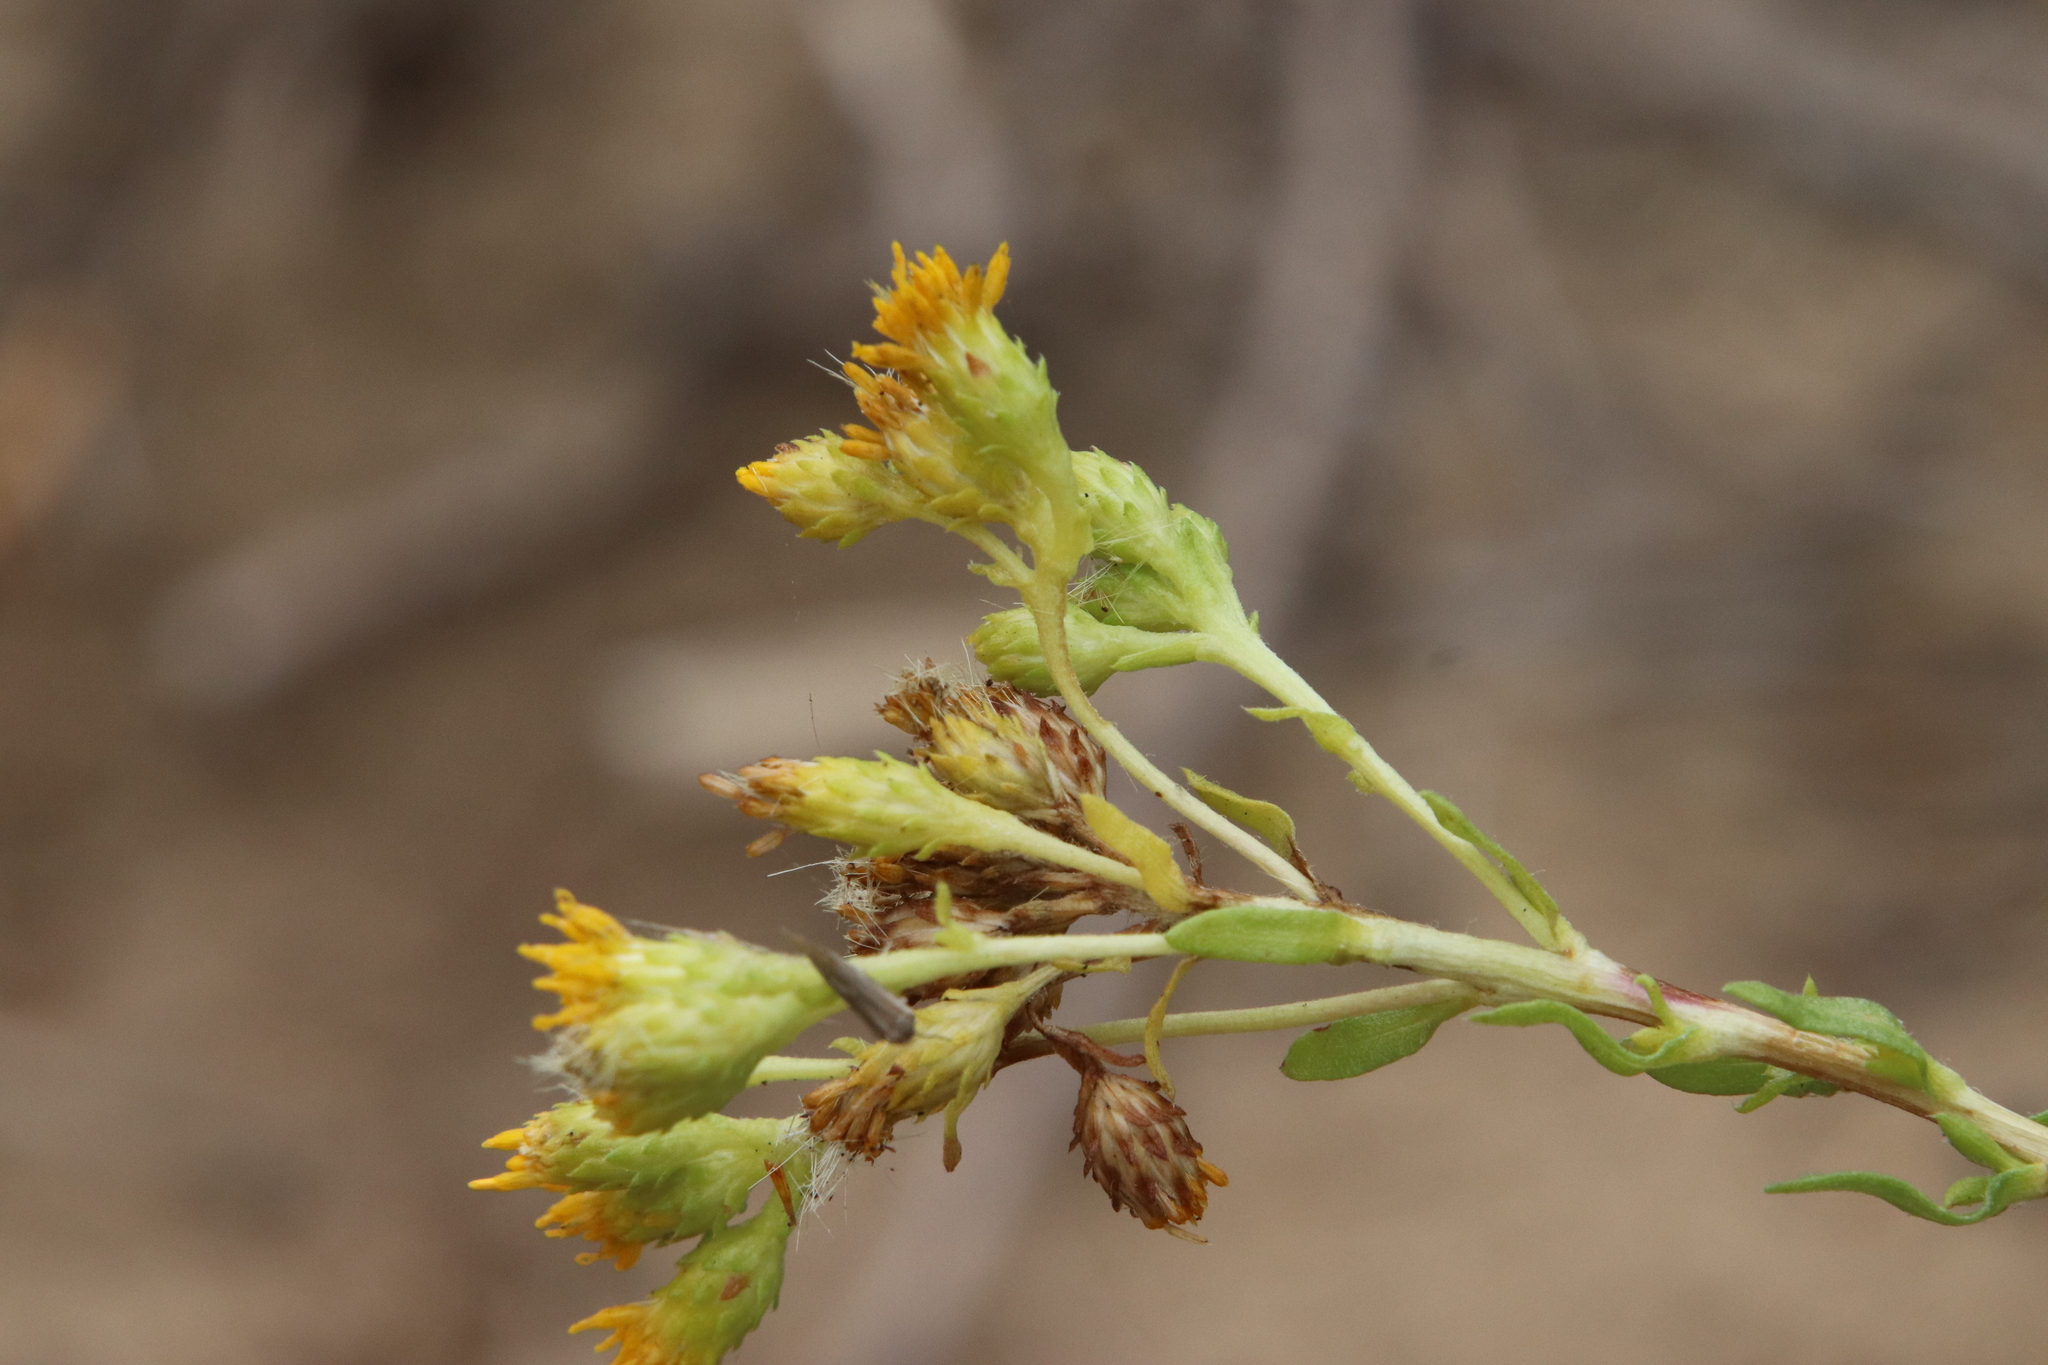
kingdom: Plantae
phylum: Tracheophyta
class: Magnoliopsida
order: Asterales
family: Asteraceae
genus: Isocoma
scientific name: Isocoma menziesii
